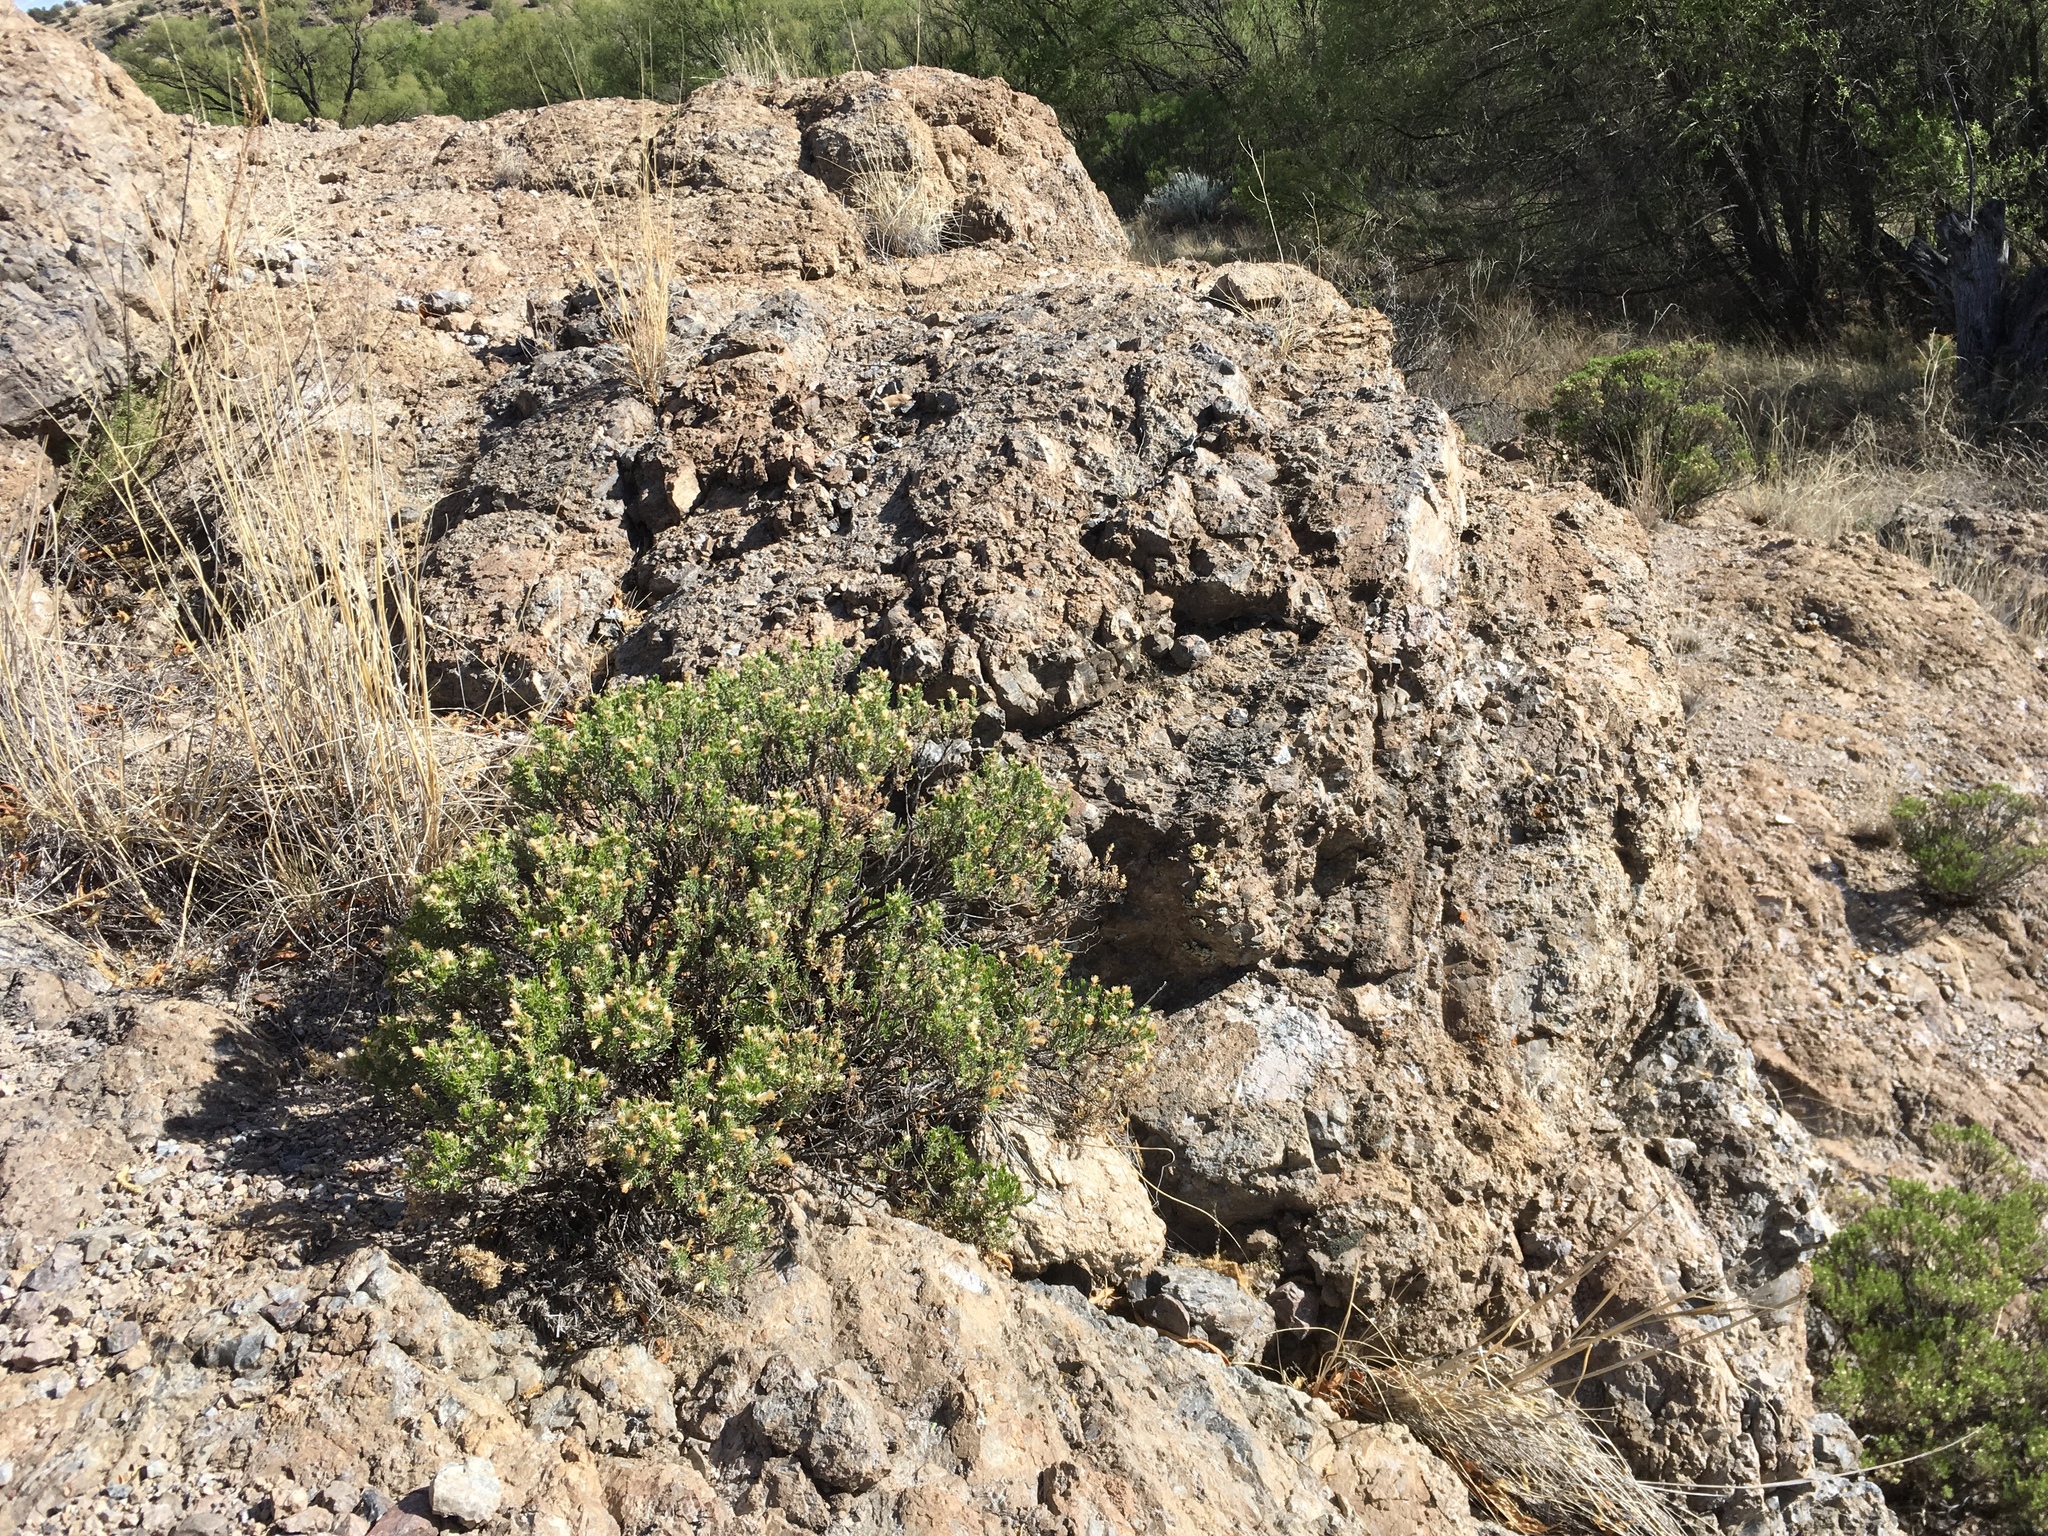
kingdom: Plantae
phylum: Tracheophyta
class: Magnoliopsida
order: Asterales
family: Asteraceae
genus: Ericameria
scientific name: Ericameria laricifolia
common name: Turpentine-bush
